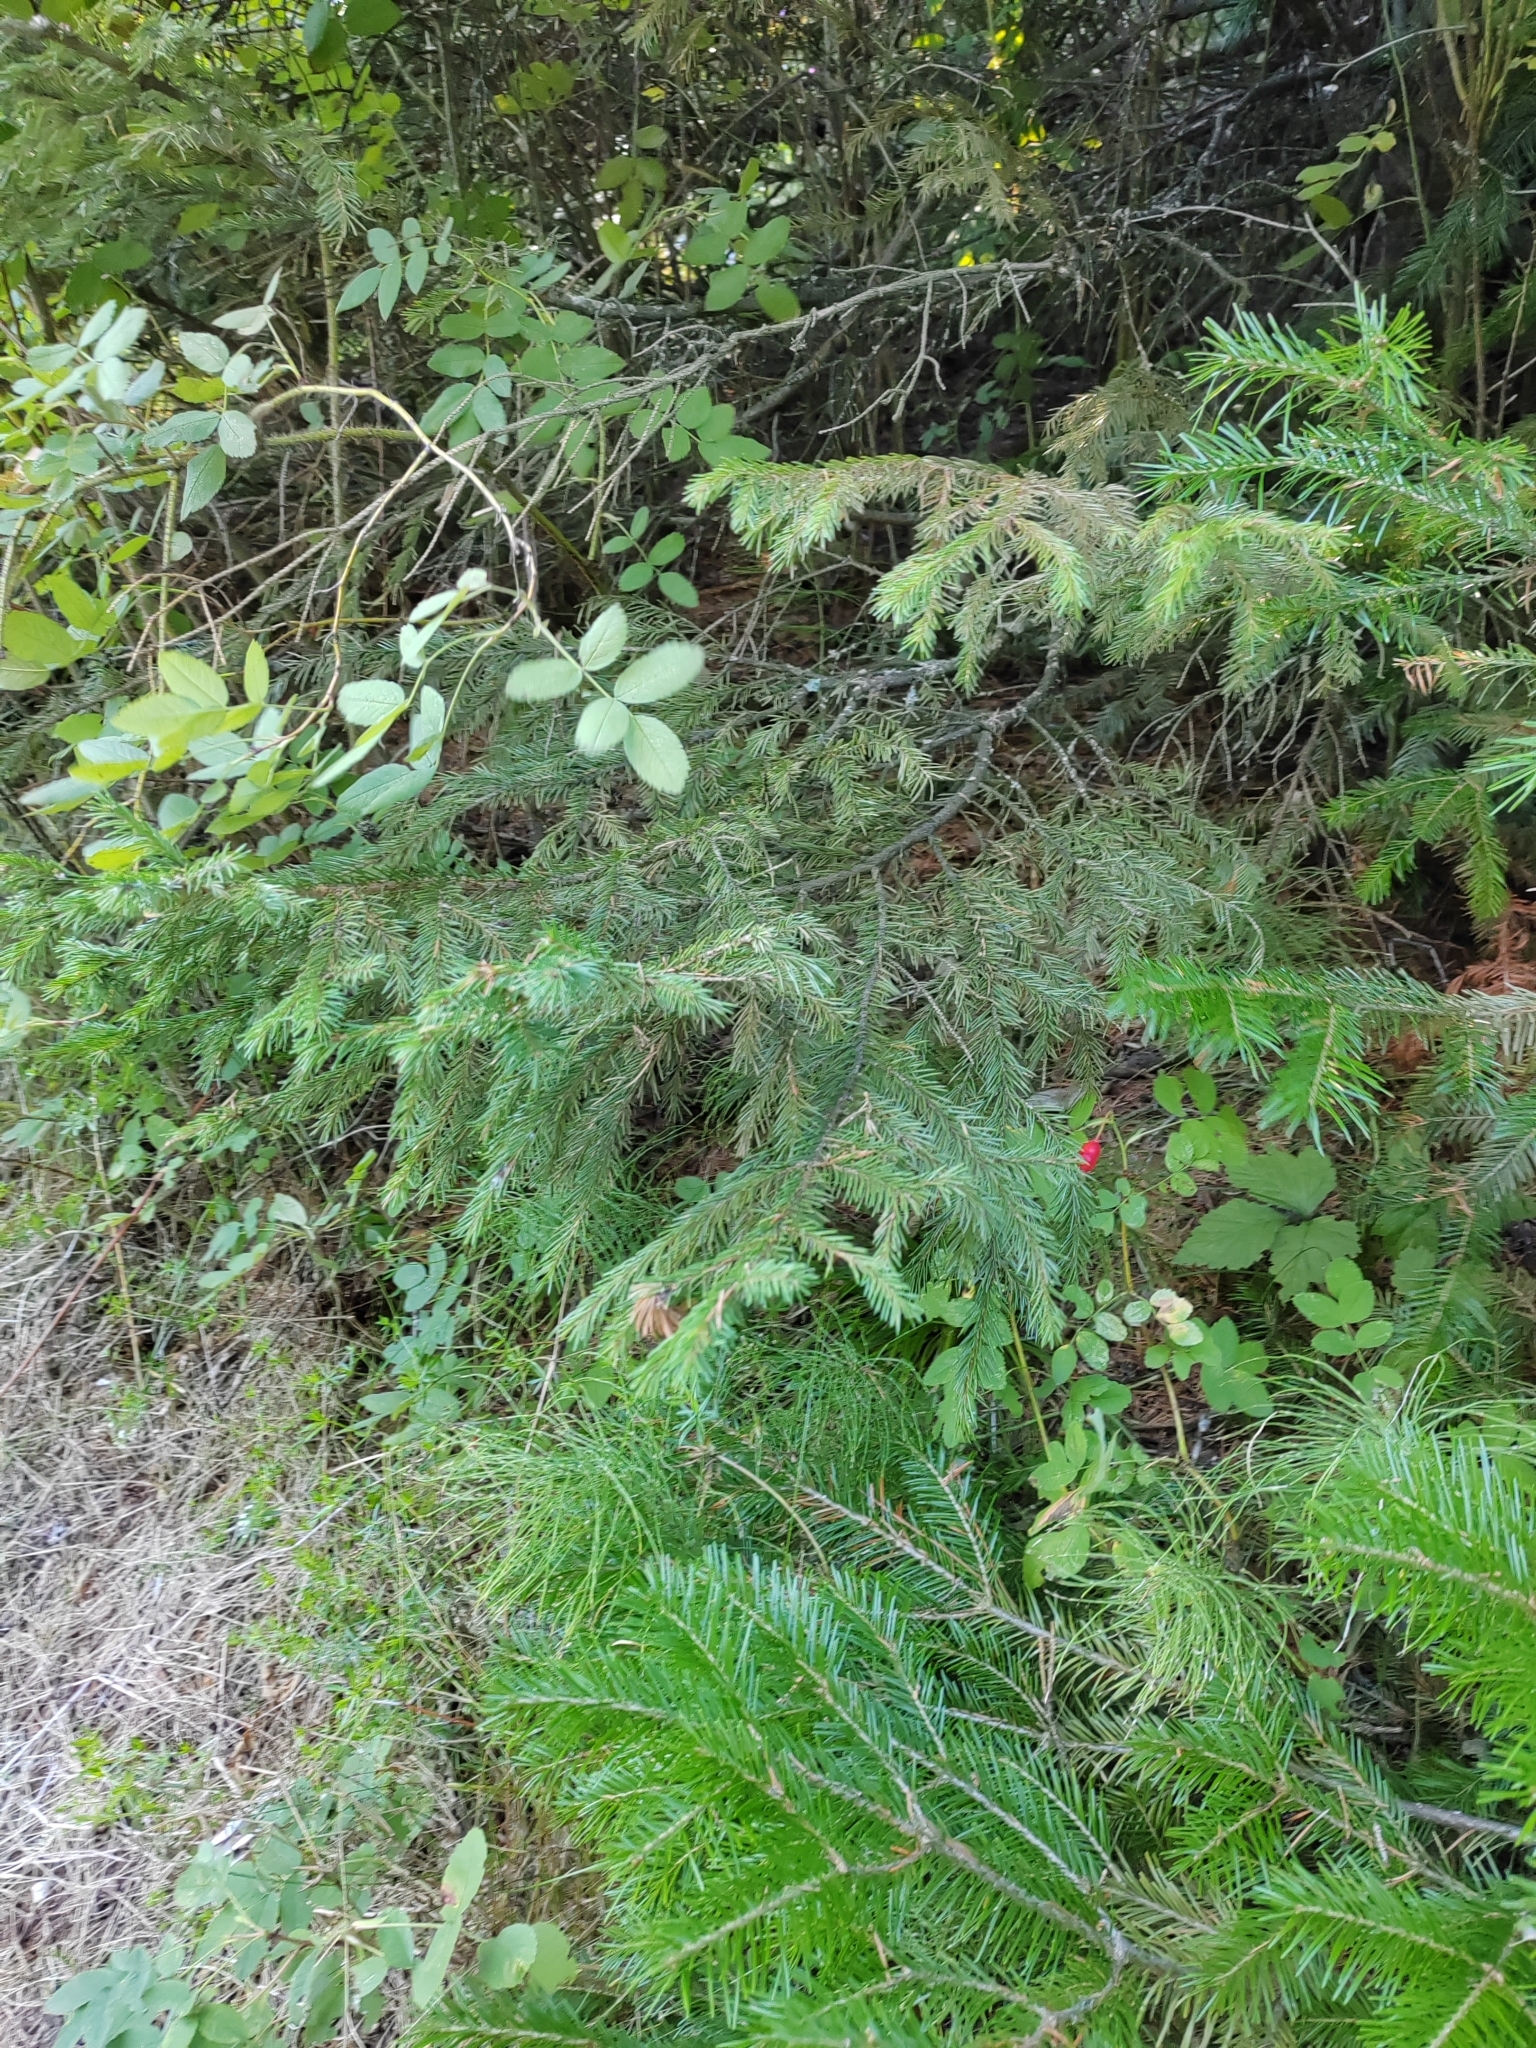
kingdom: Plantae
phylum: Tracheophyta
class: Pinopsida
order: Pinales
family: Pinaceae
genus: Abies
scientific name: Abies sibirica
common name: Siberian fir
